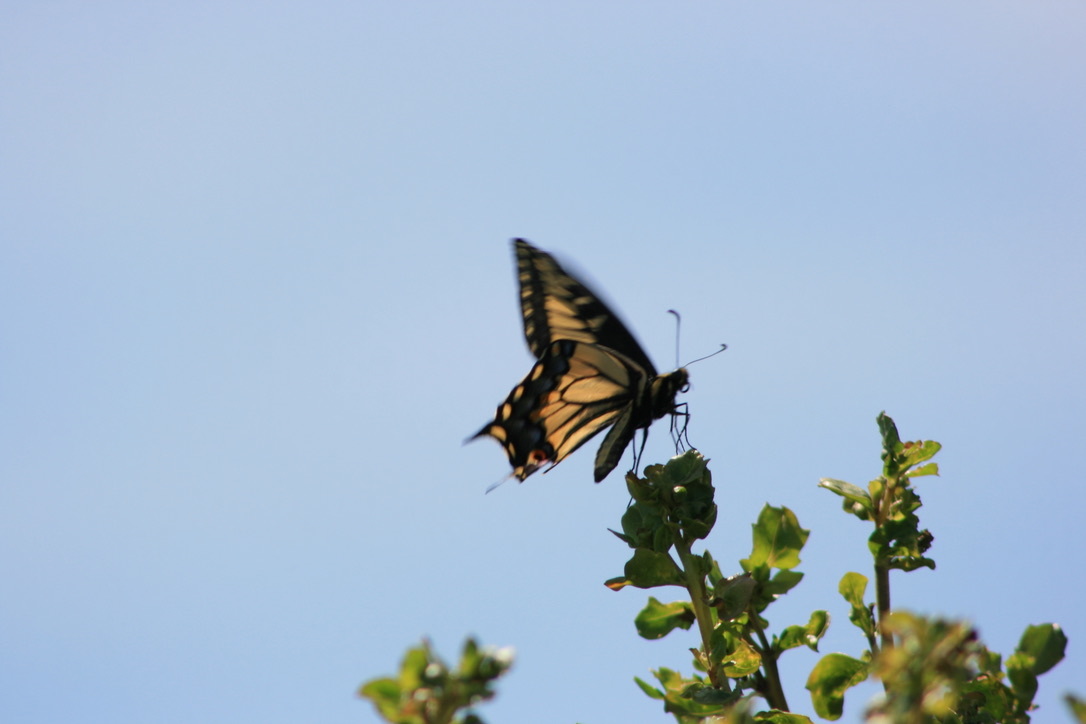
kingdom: Animalia
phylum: Arthropoda
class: Insecta
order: Lepidoptera
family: Papilionidae
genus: Papilio
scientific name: Papilio zelicaon
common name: Anise swallowtail
